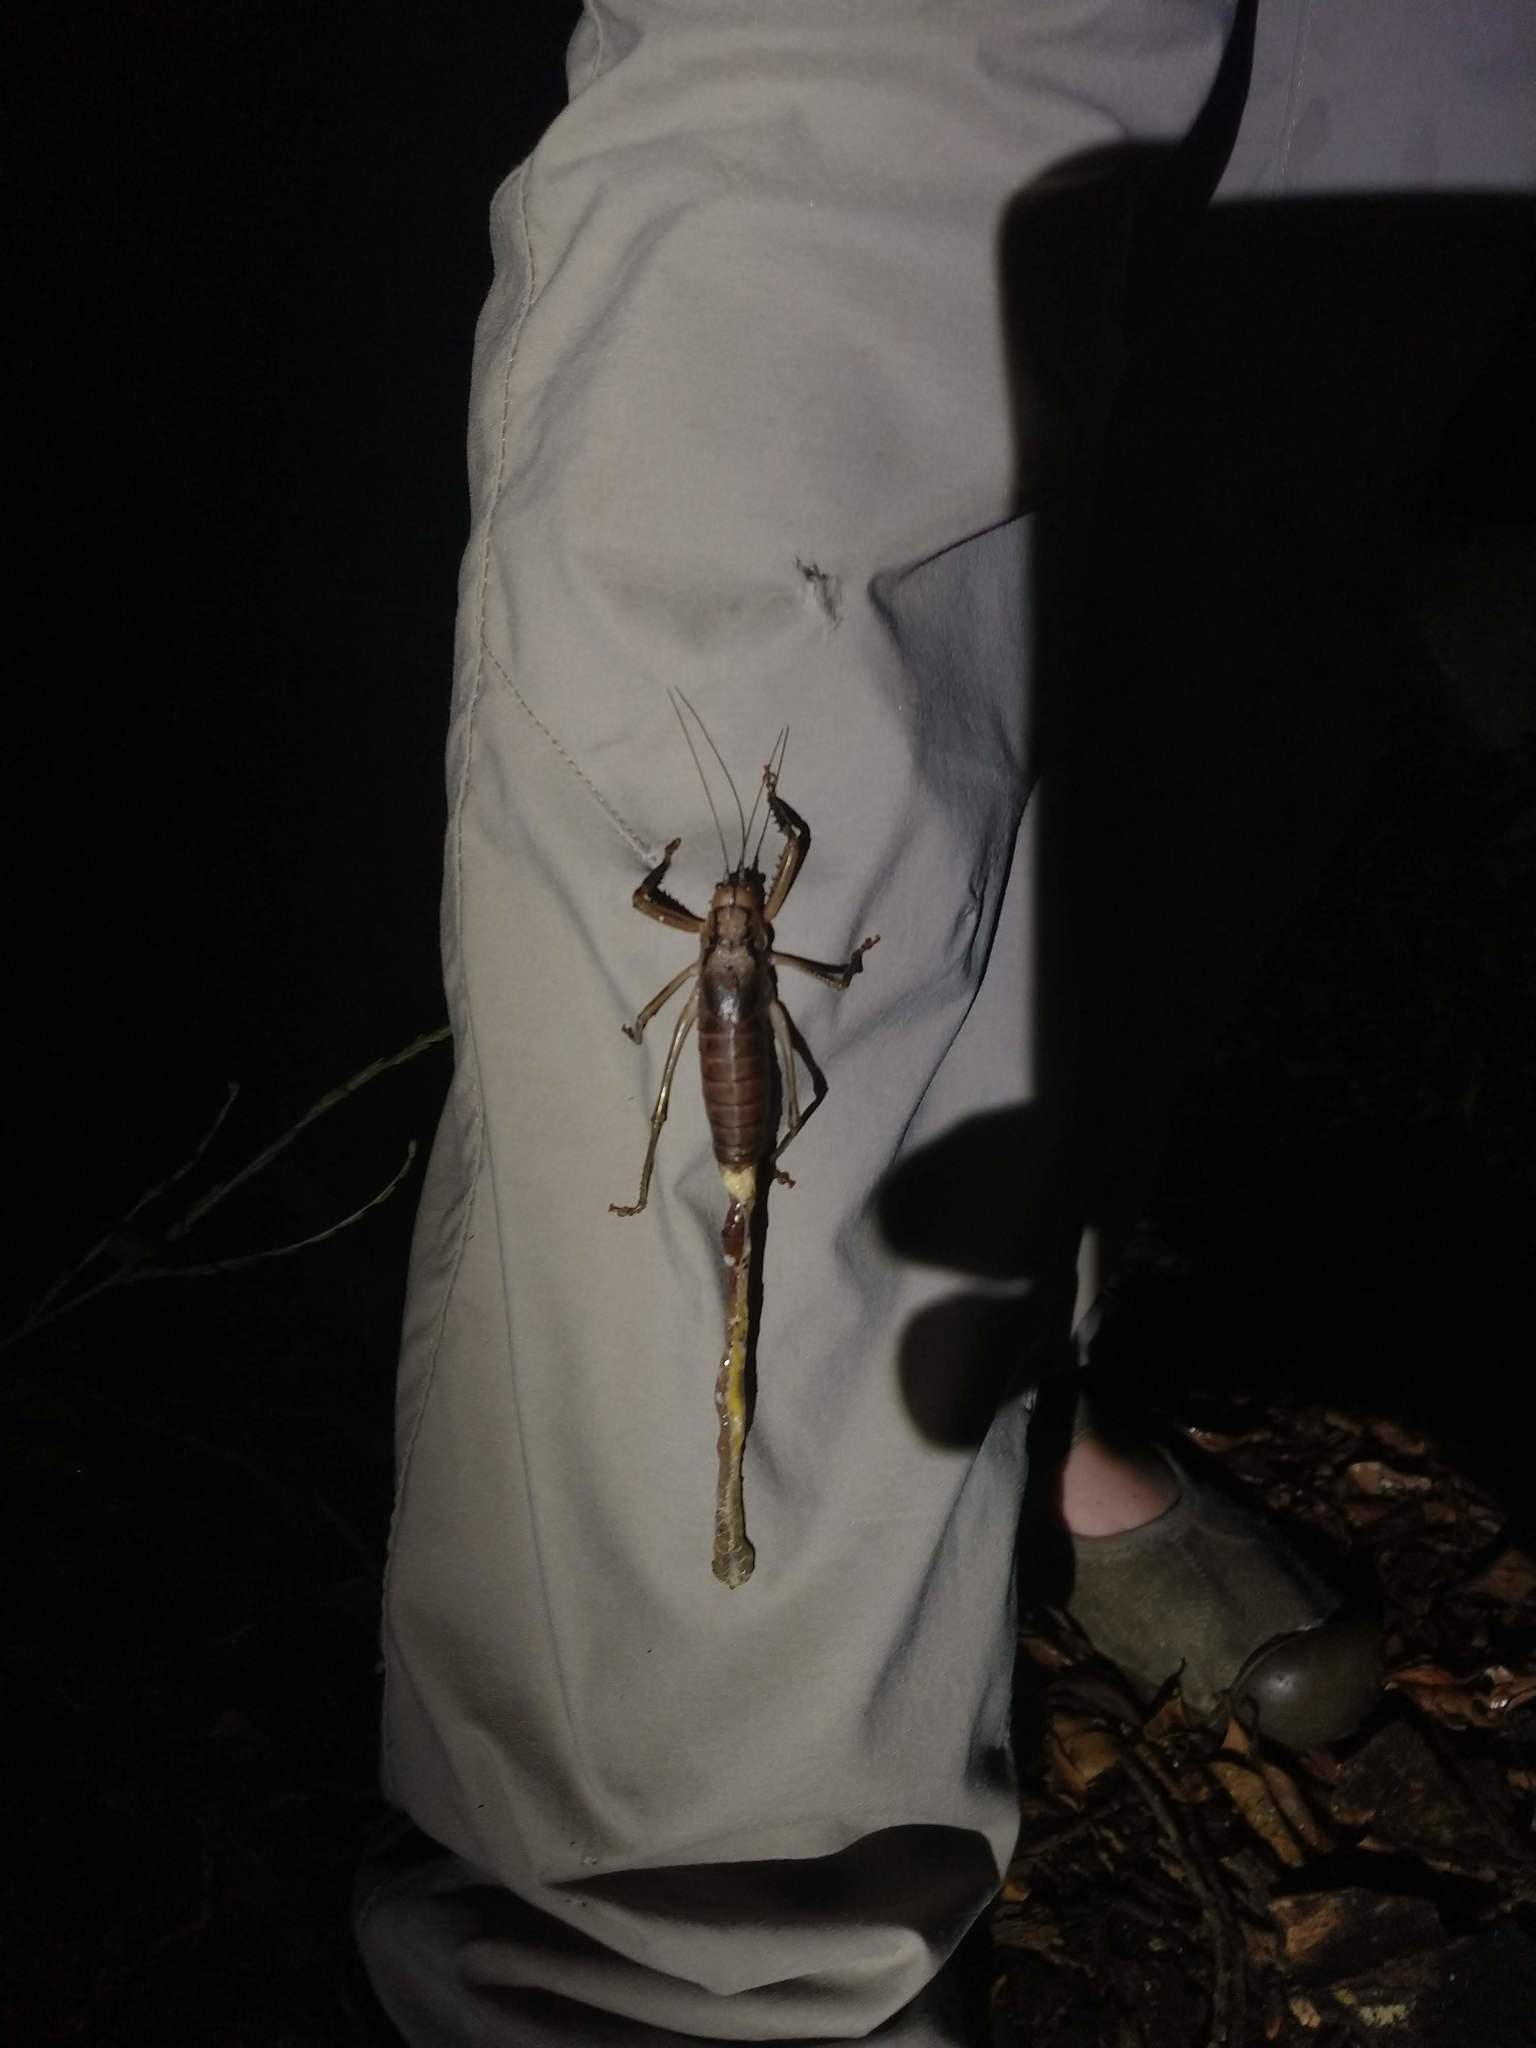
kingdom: Animalia
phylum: Arthropoda
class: Insecta
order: Orthoptera
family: Tettigoniidae
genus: Nesoecia
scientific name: Nesoecia insignis
